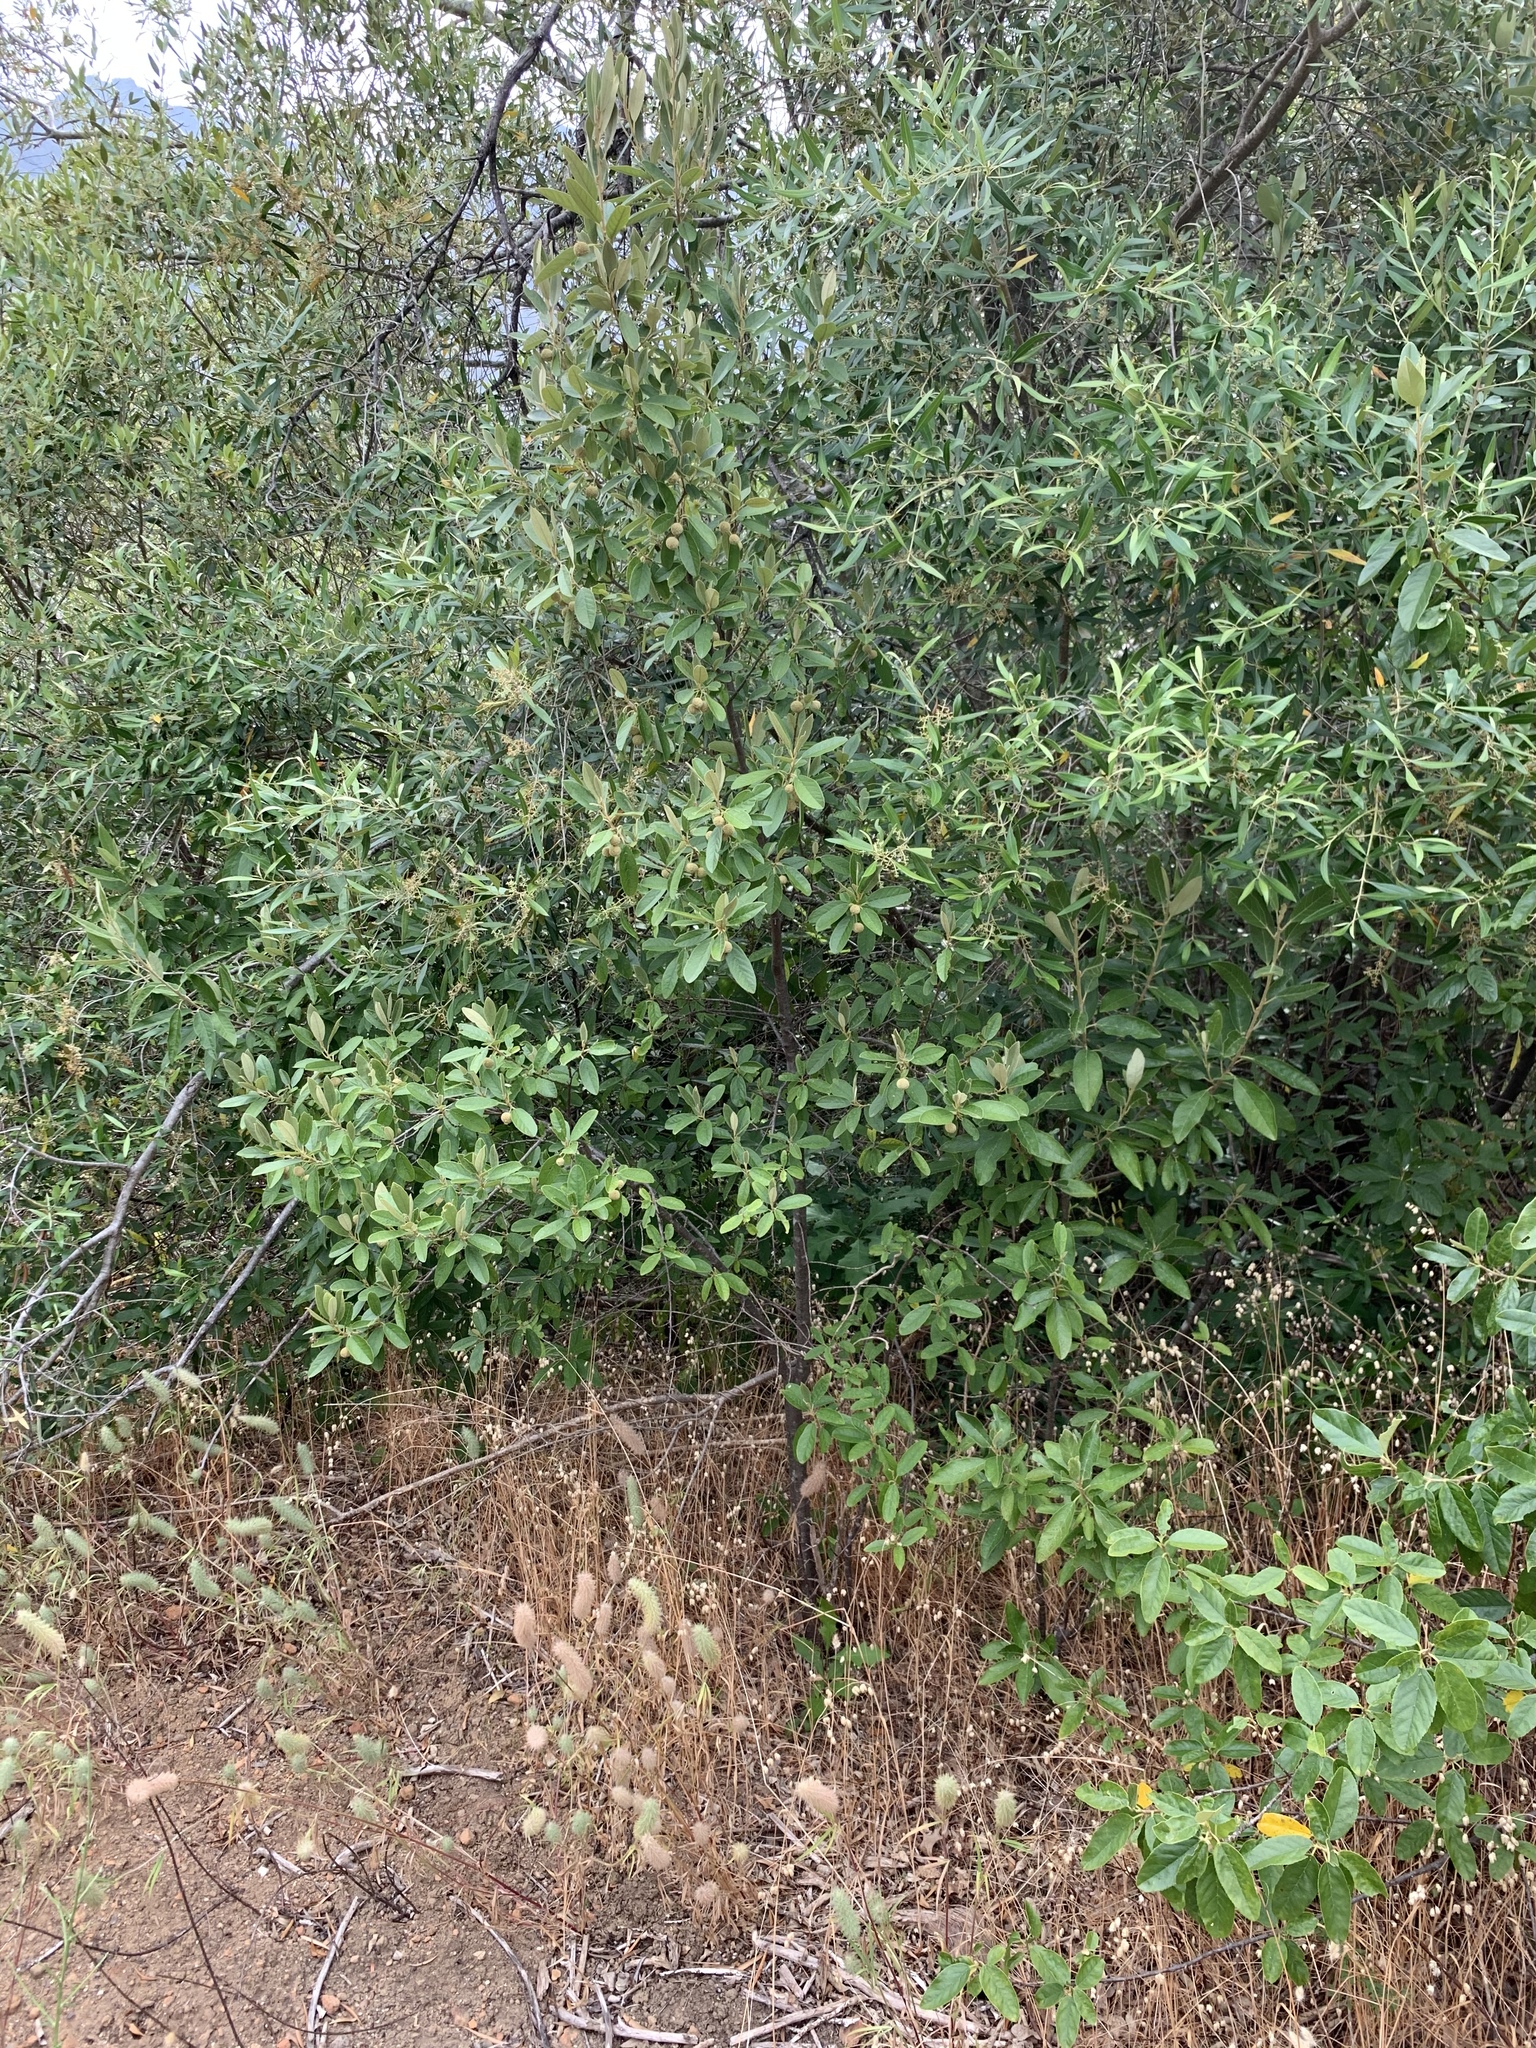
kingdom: Plantae
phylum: Tracheophyta
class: Magnoliopsida
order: Malpighiales
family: Achariaceae
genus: Kiggelaria
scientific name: Kiggelaria africana
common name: Wild peach
